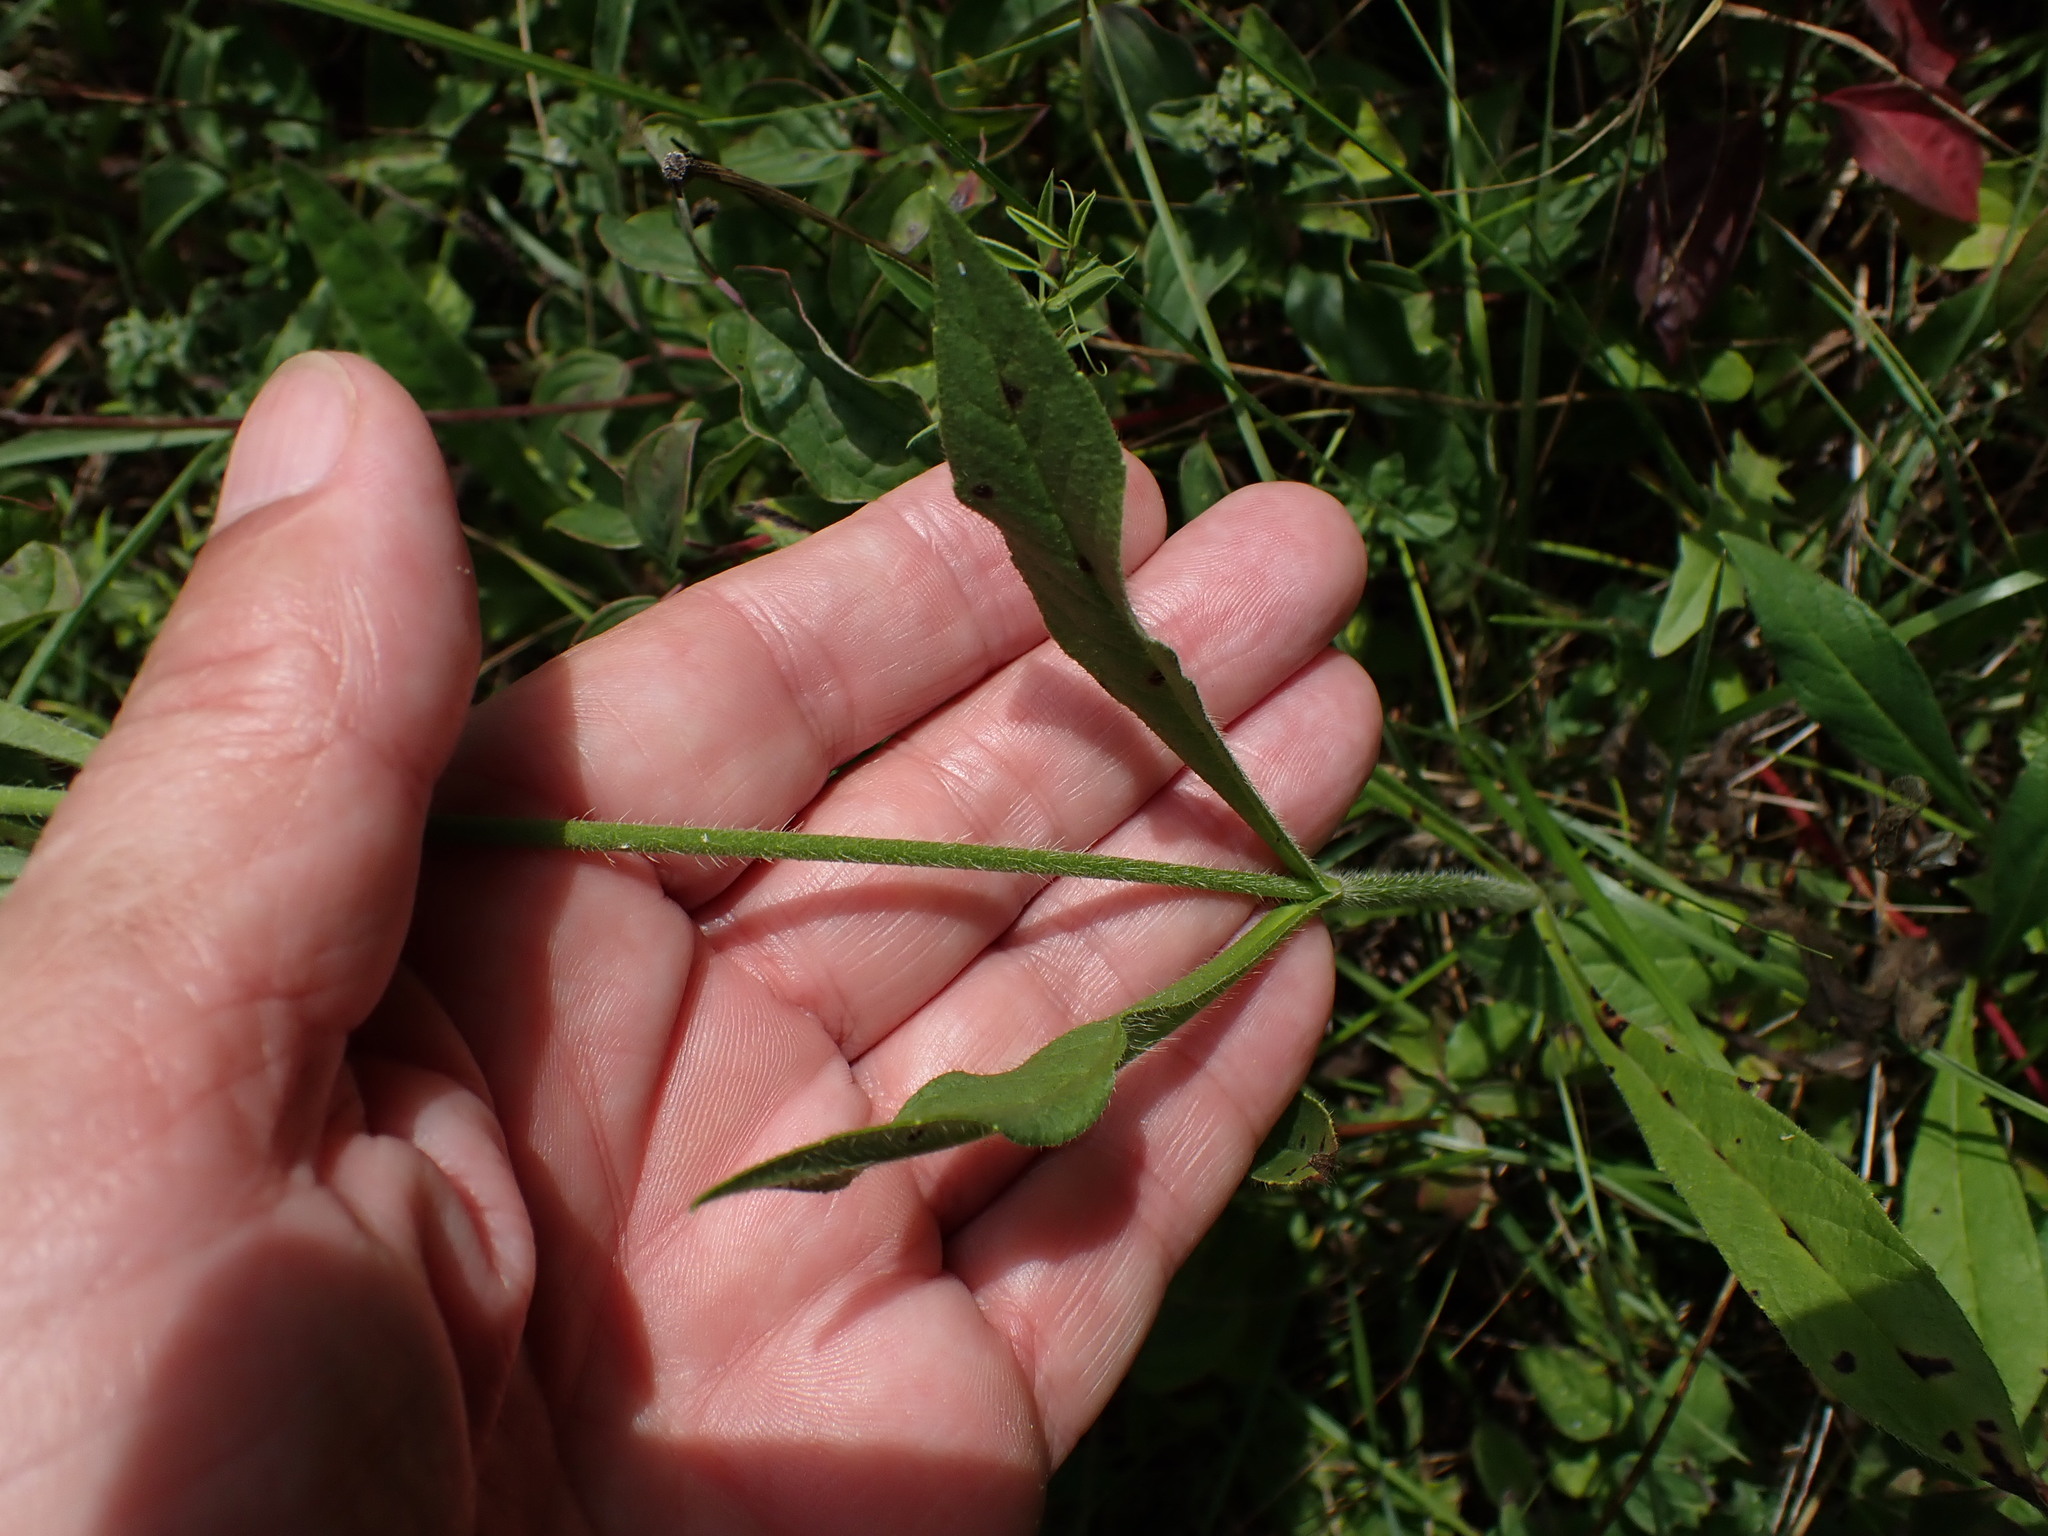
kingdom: Plantae
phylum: Tracheophyta
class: Magnoliopsida
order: Dipsacales
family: Caprifoliaceae
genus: Knautia
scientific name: Knautia arvensis
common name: Field scabiosa
